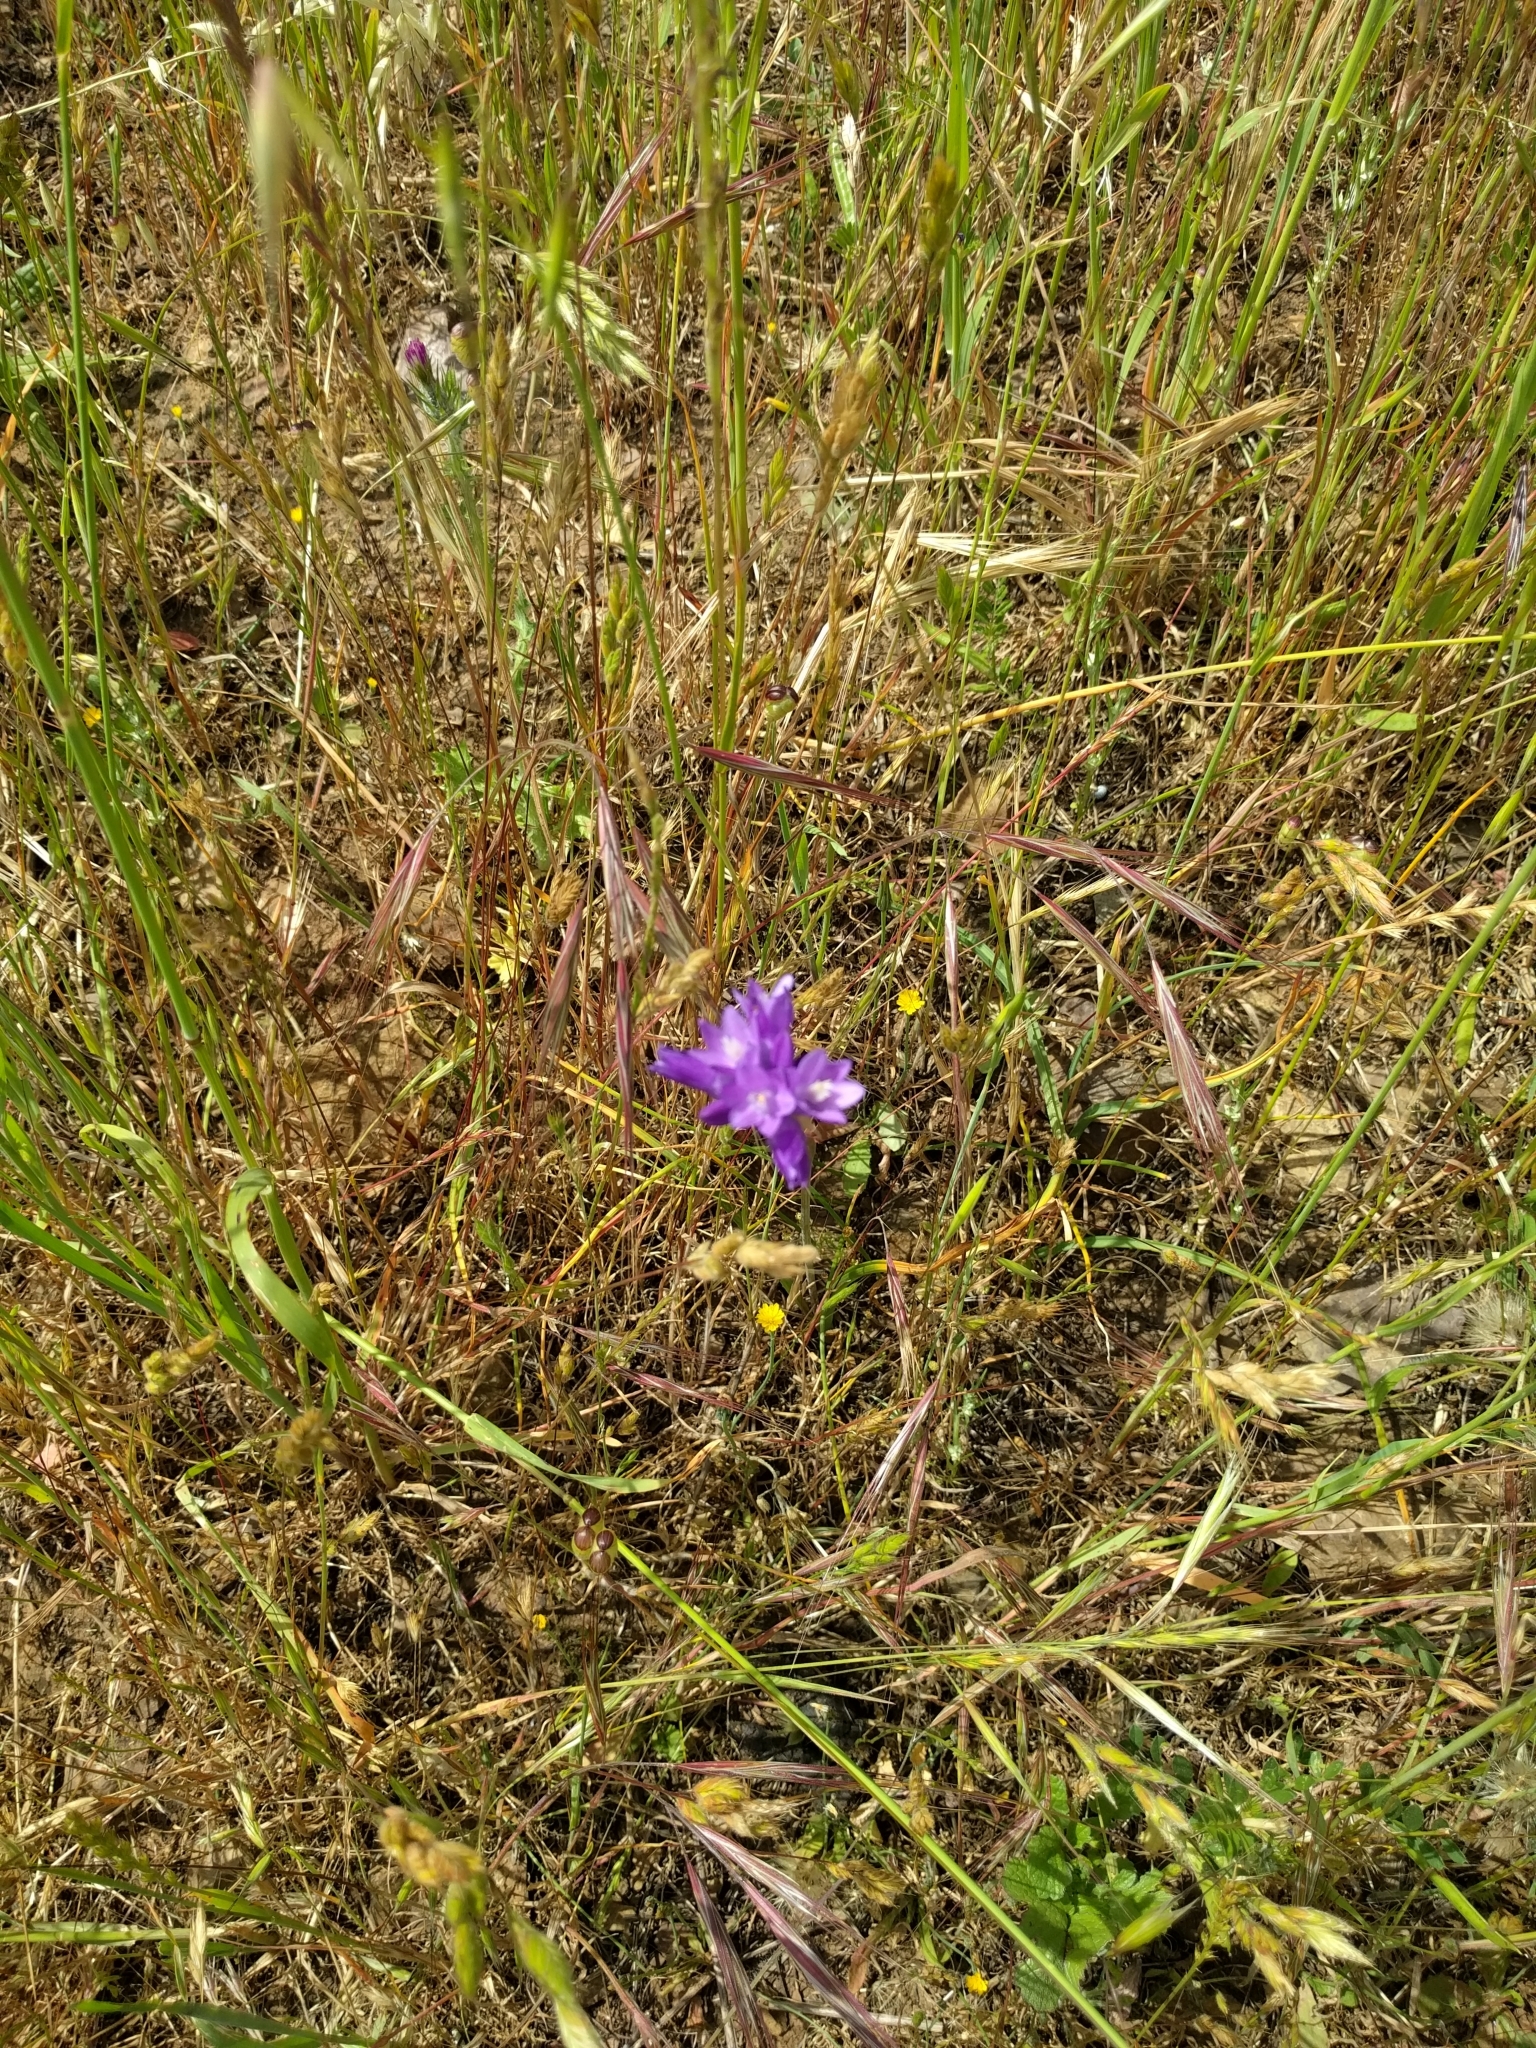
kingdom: Plantae
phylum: Tracheophyta
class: Liliopsida
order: Asparagales
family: Asparagaceae
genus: Dipterostemon
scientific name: Dipterostemon capitatus
